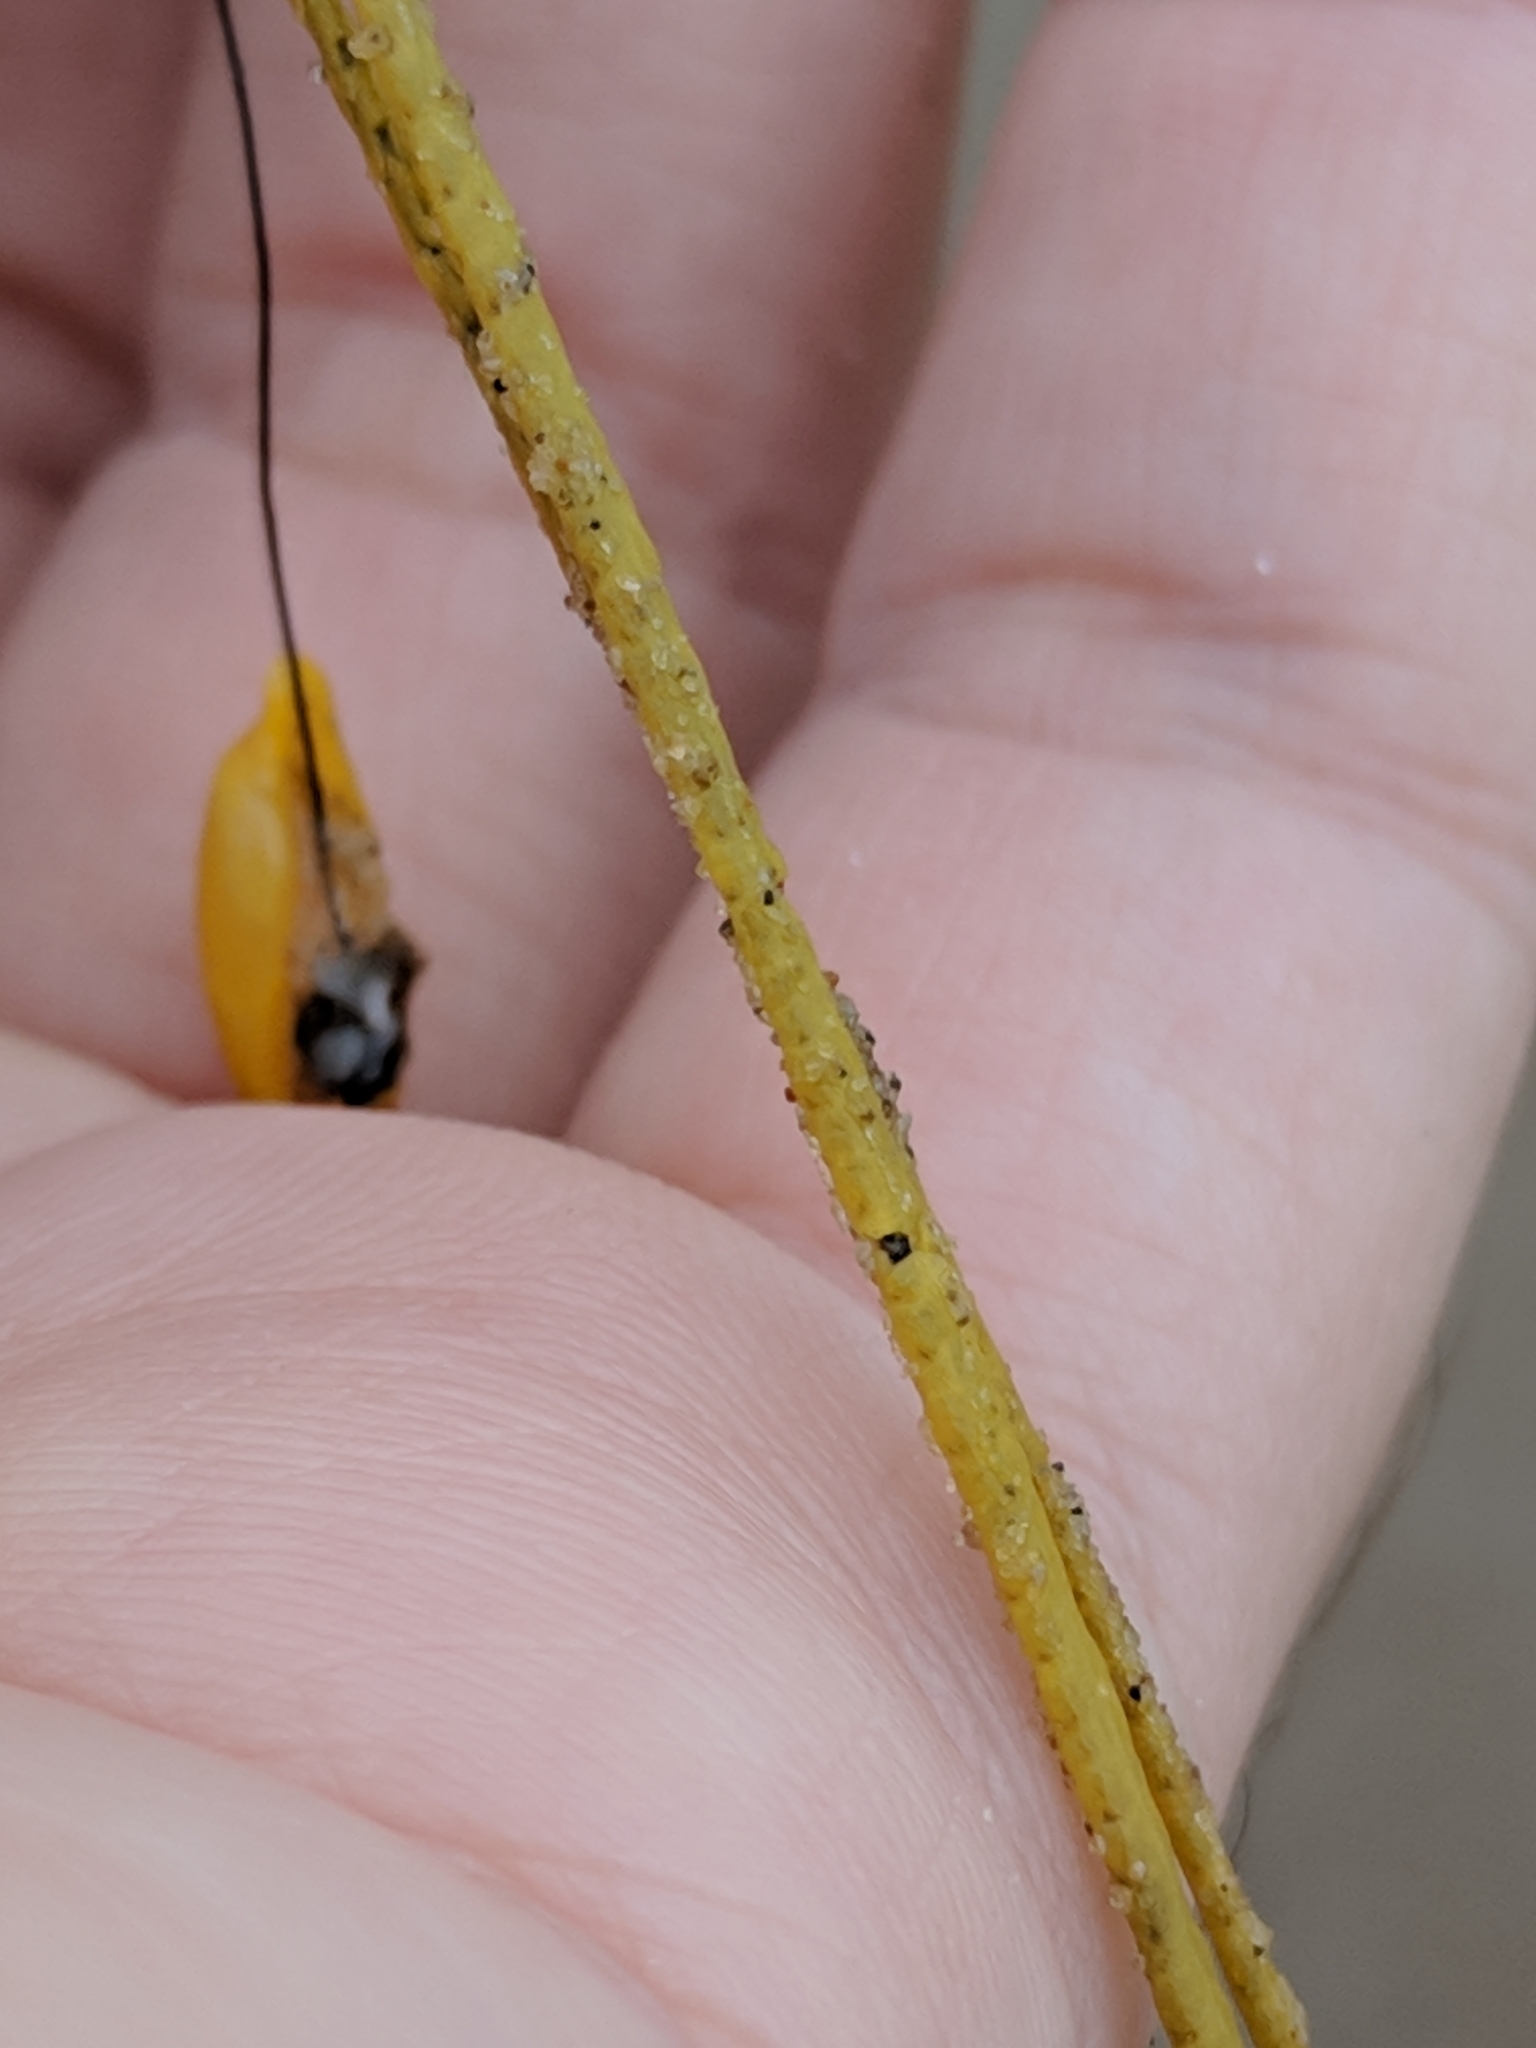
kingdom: Animalia
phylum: Cnidaria
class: Anthozoa
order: Malacalcyonacea
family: Gorgoniidae
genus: Leptogorgia
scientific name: Leptogorgia setacea
